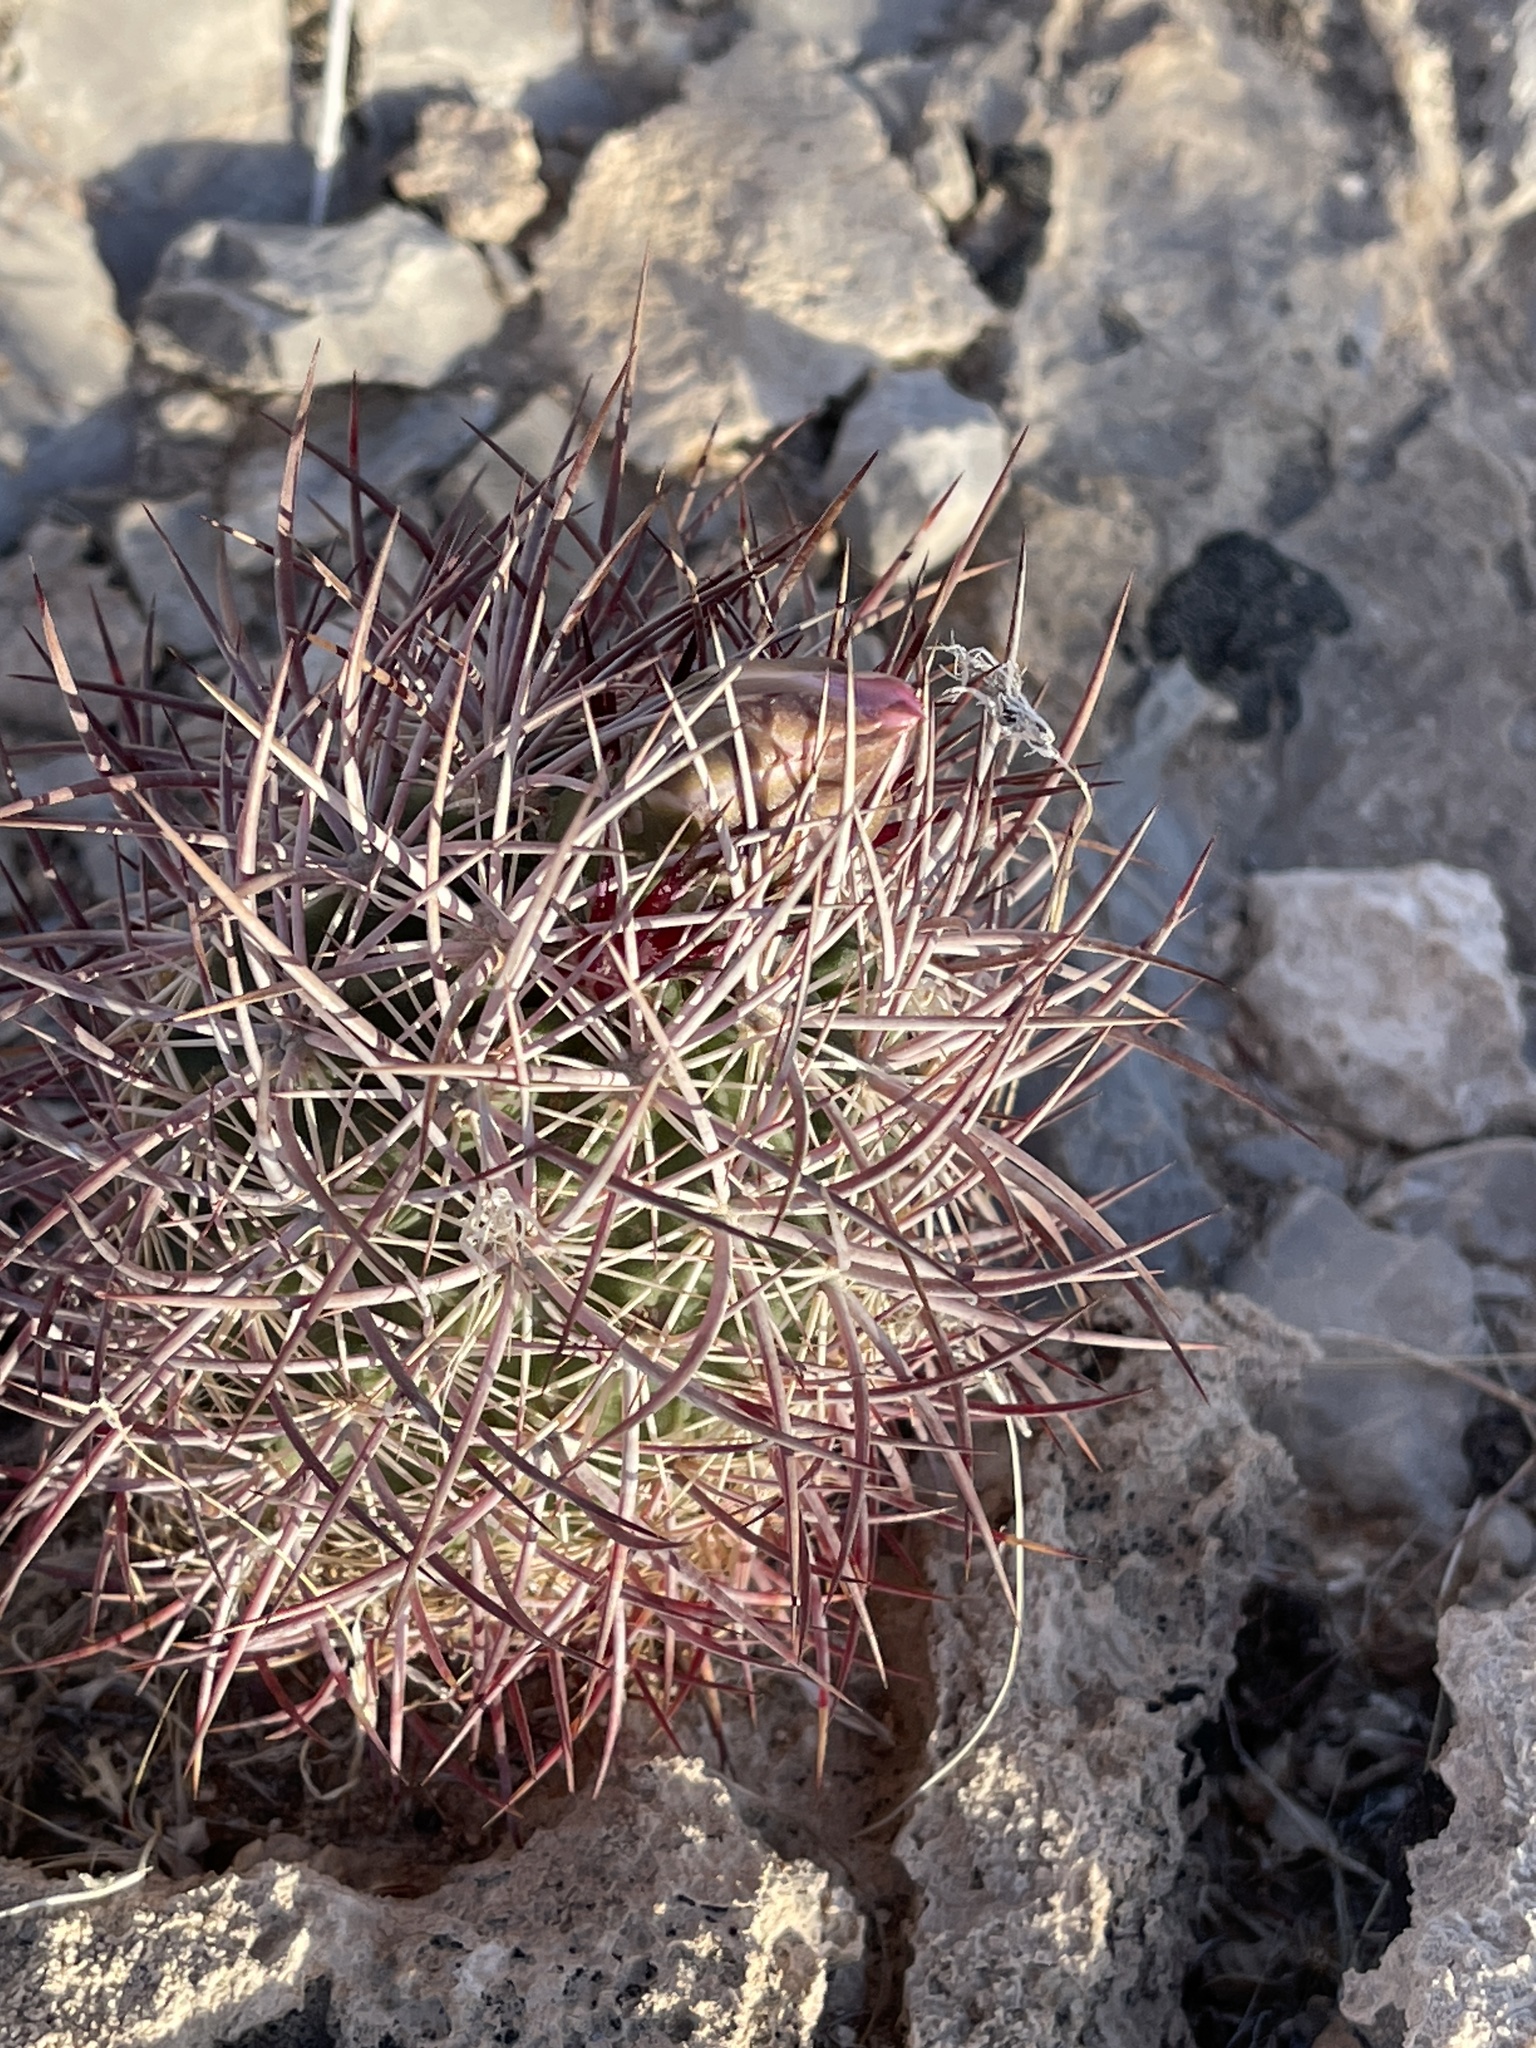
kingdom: Plantae
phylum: Tracheophyta
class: Magnoliopsida
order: Caryophyllales
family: Cactaceae
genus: Sclerocactus
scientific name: Sclerocactus johnsonii
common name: Eight-spine fishhook cactus
